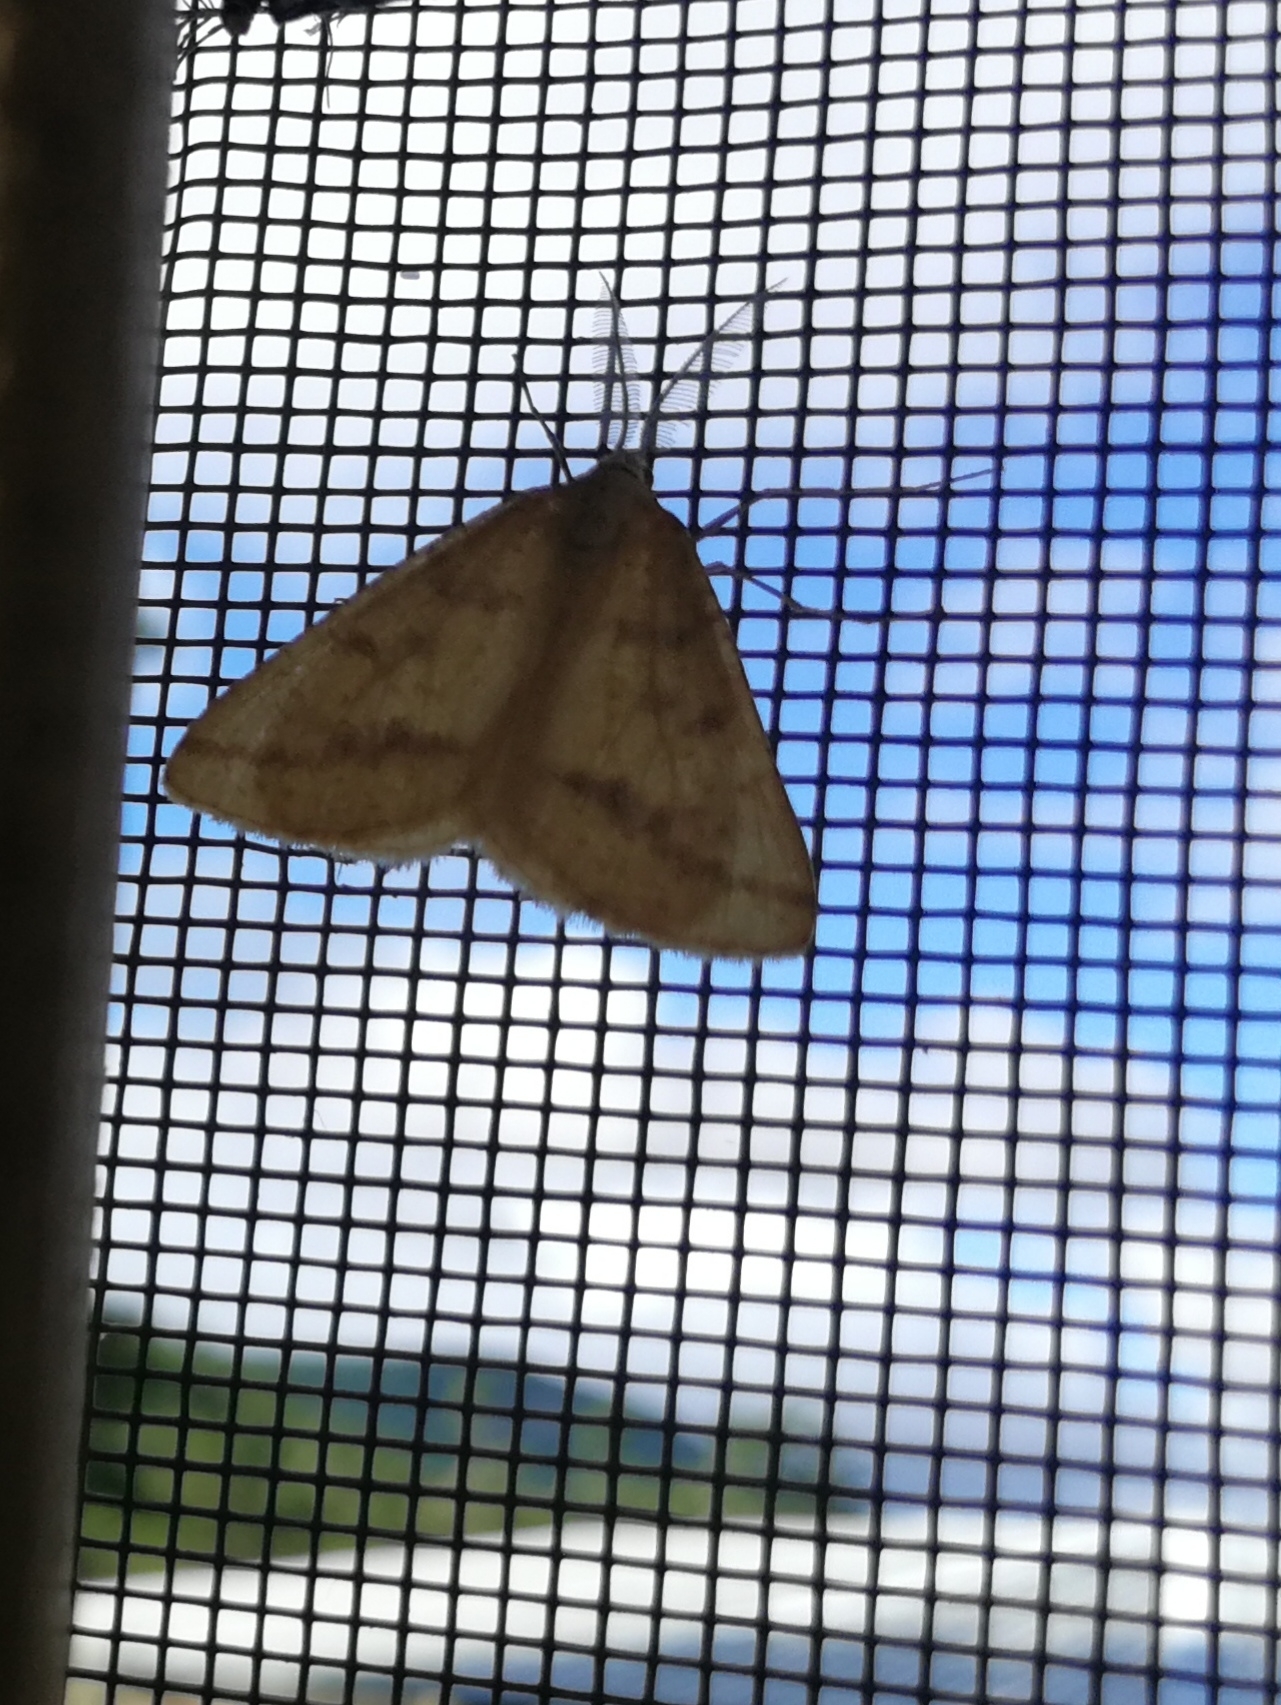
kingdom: Animalia
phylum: Arthropoda
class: Insecta
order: Lepidoptera
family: Geometridae
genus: Aspitates
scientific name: Aspitates ochrearia
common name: Yellow belle
